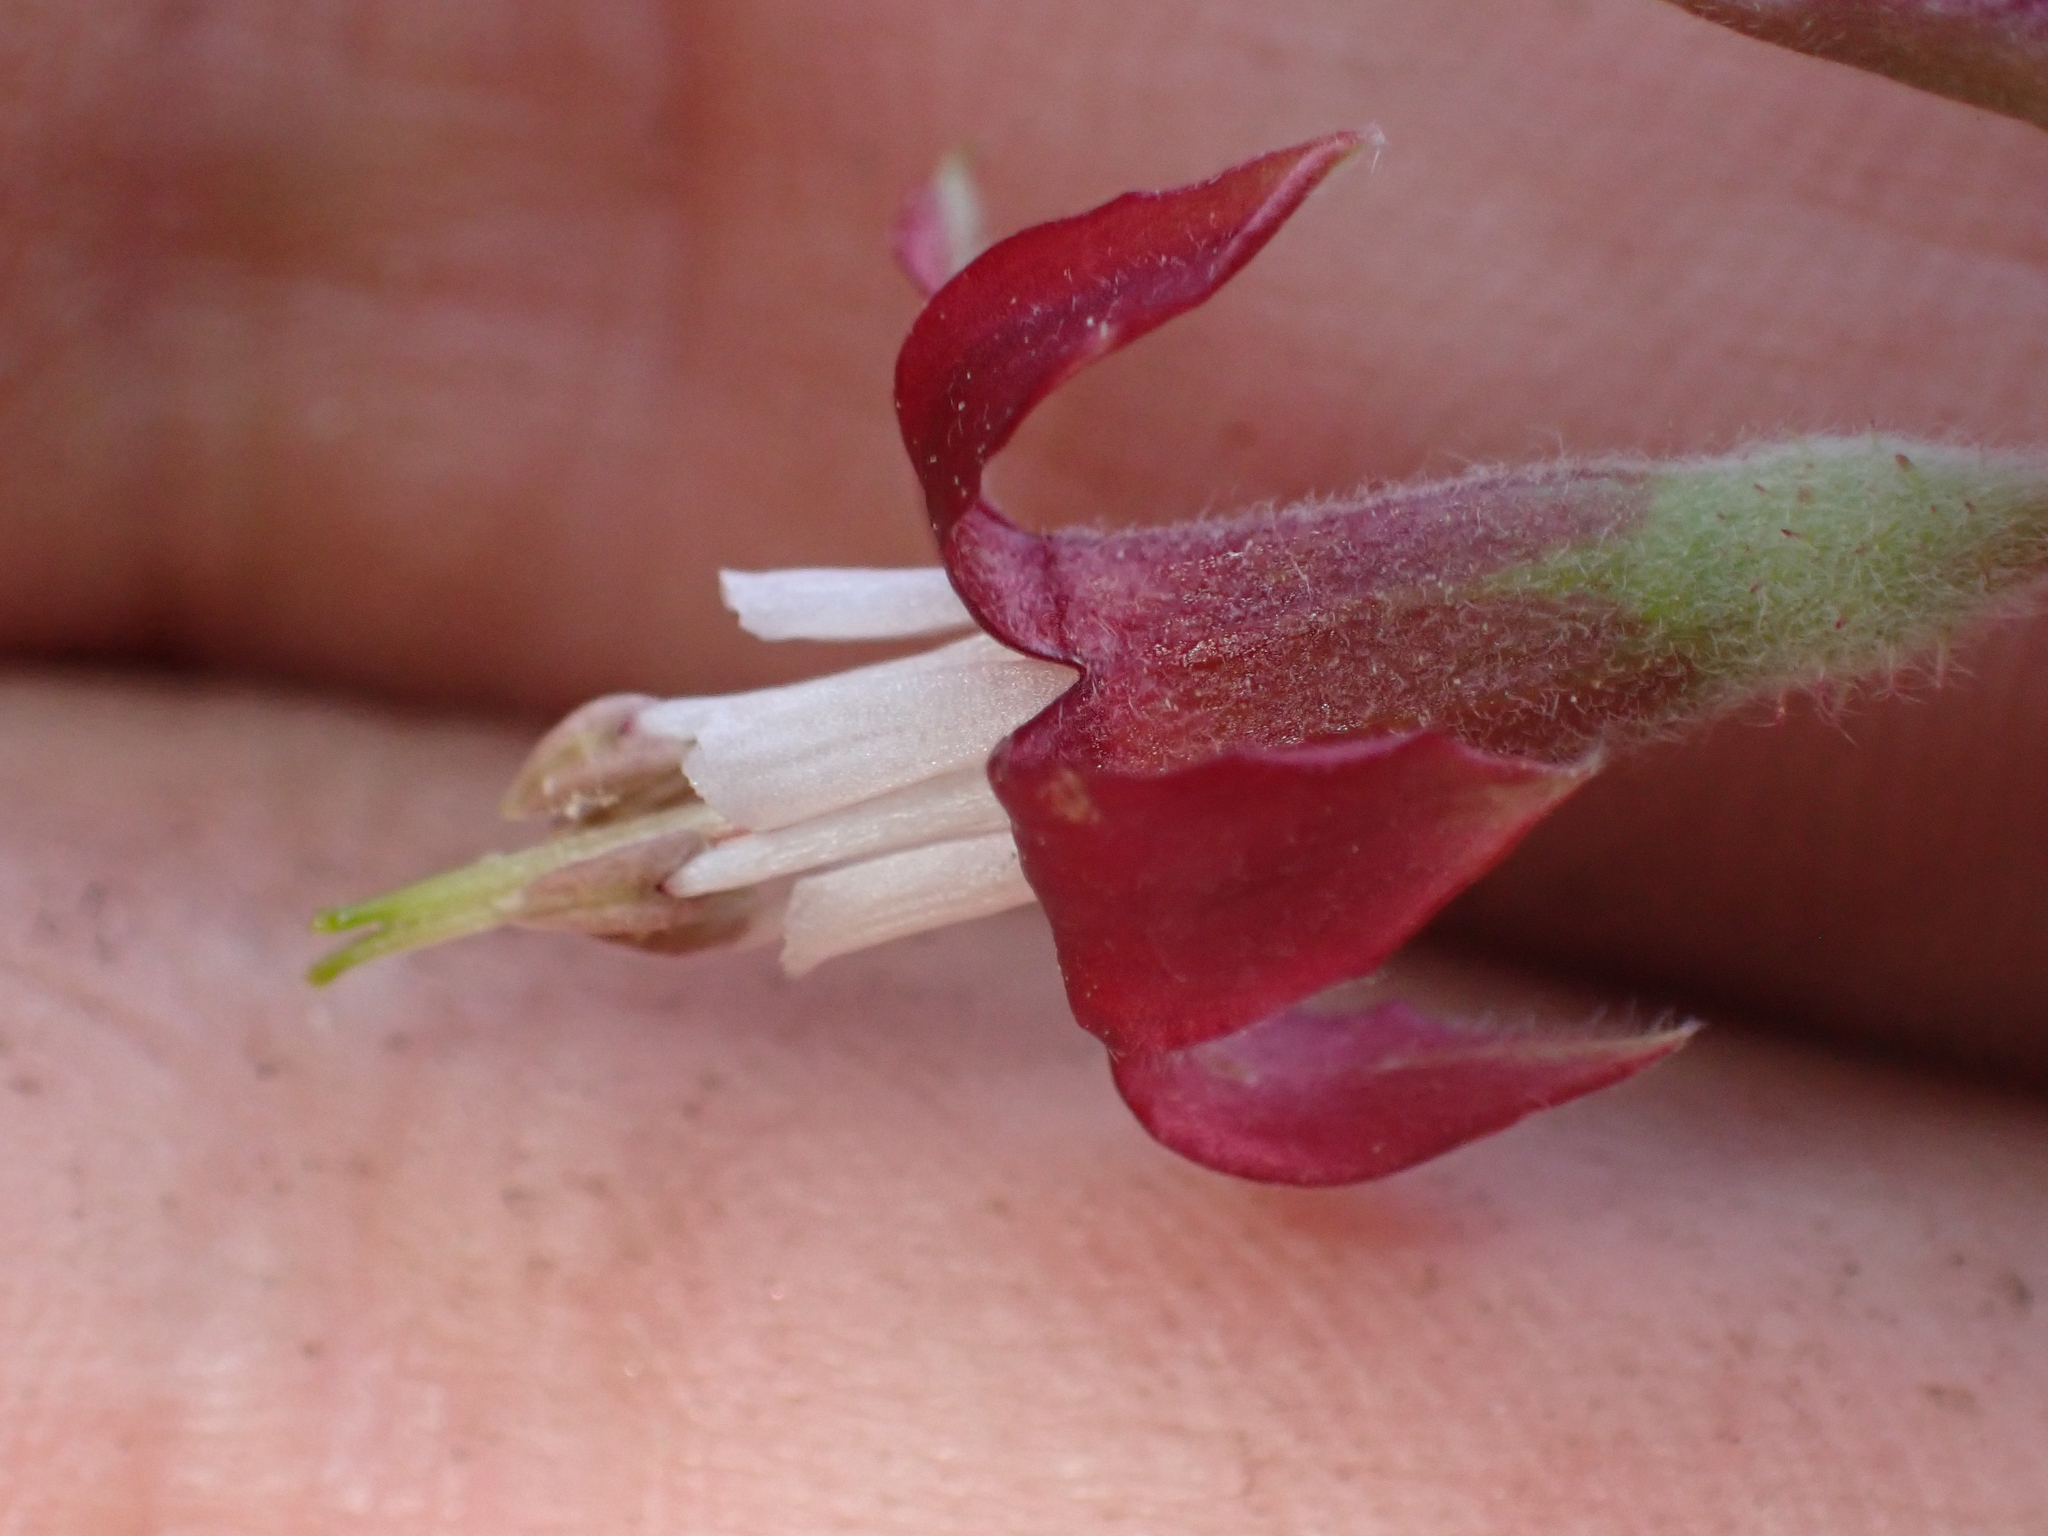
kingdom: Plantae
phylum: Tracheophyta
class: Magnoliopsida
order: Saxifragales
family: Grossulariaceae
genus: Ribes
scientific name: Ribes roezlii
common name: Sierra gooseberry
